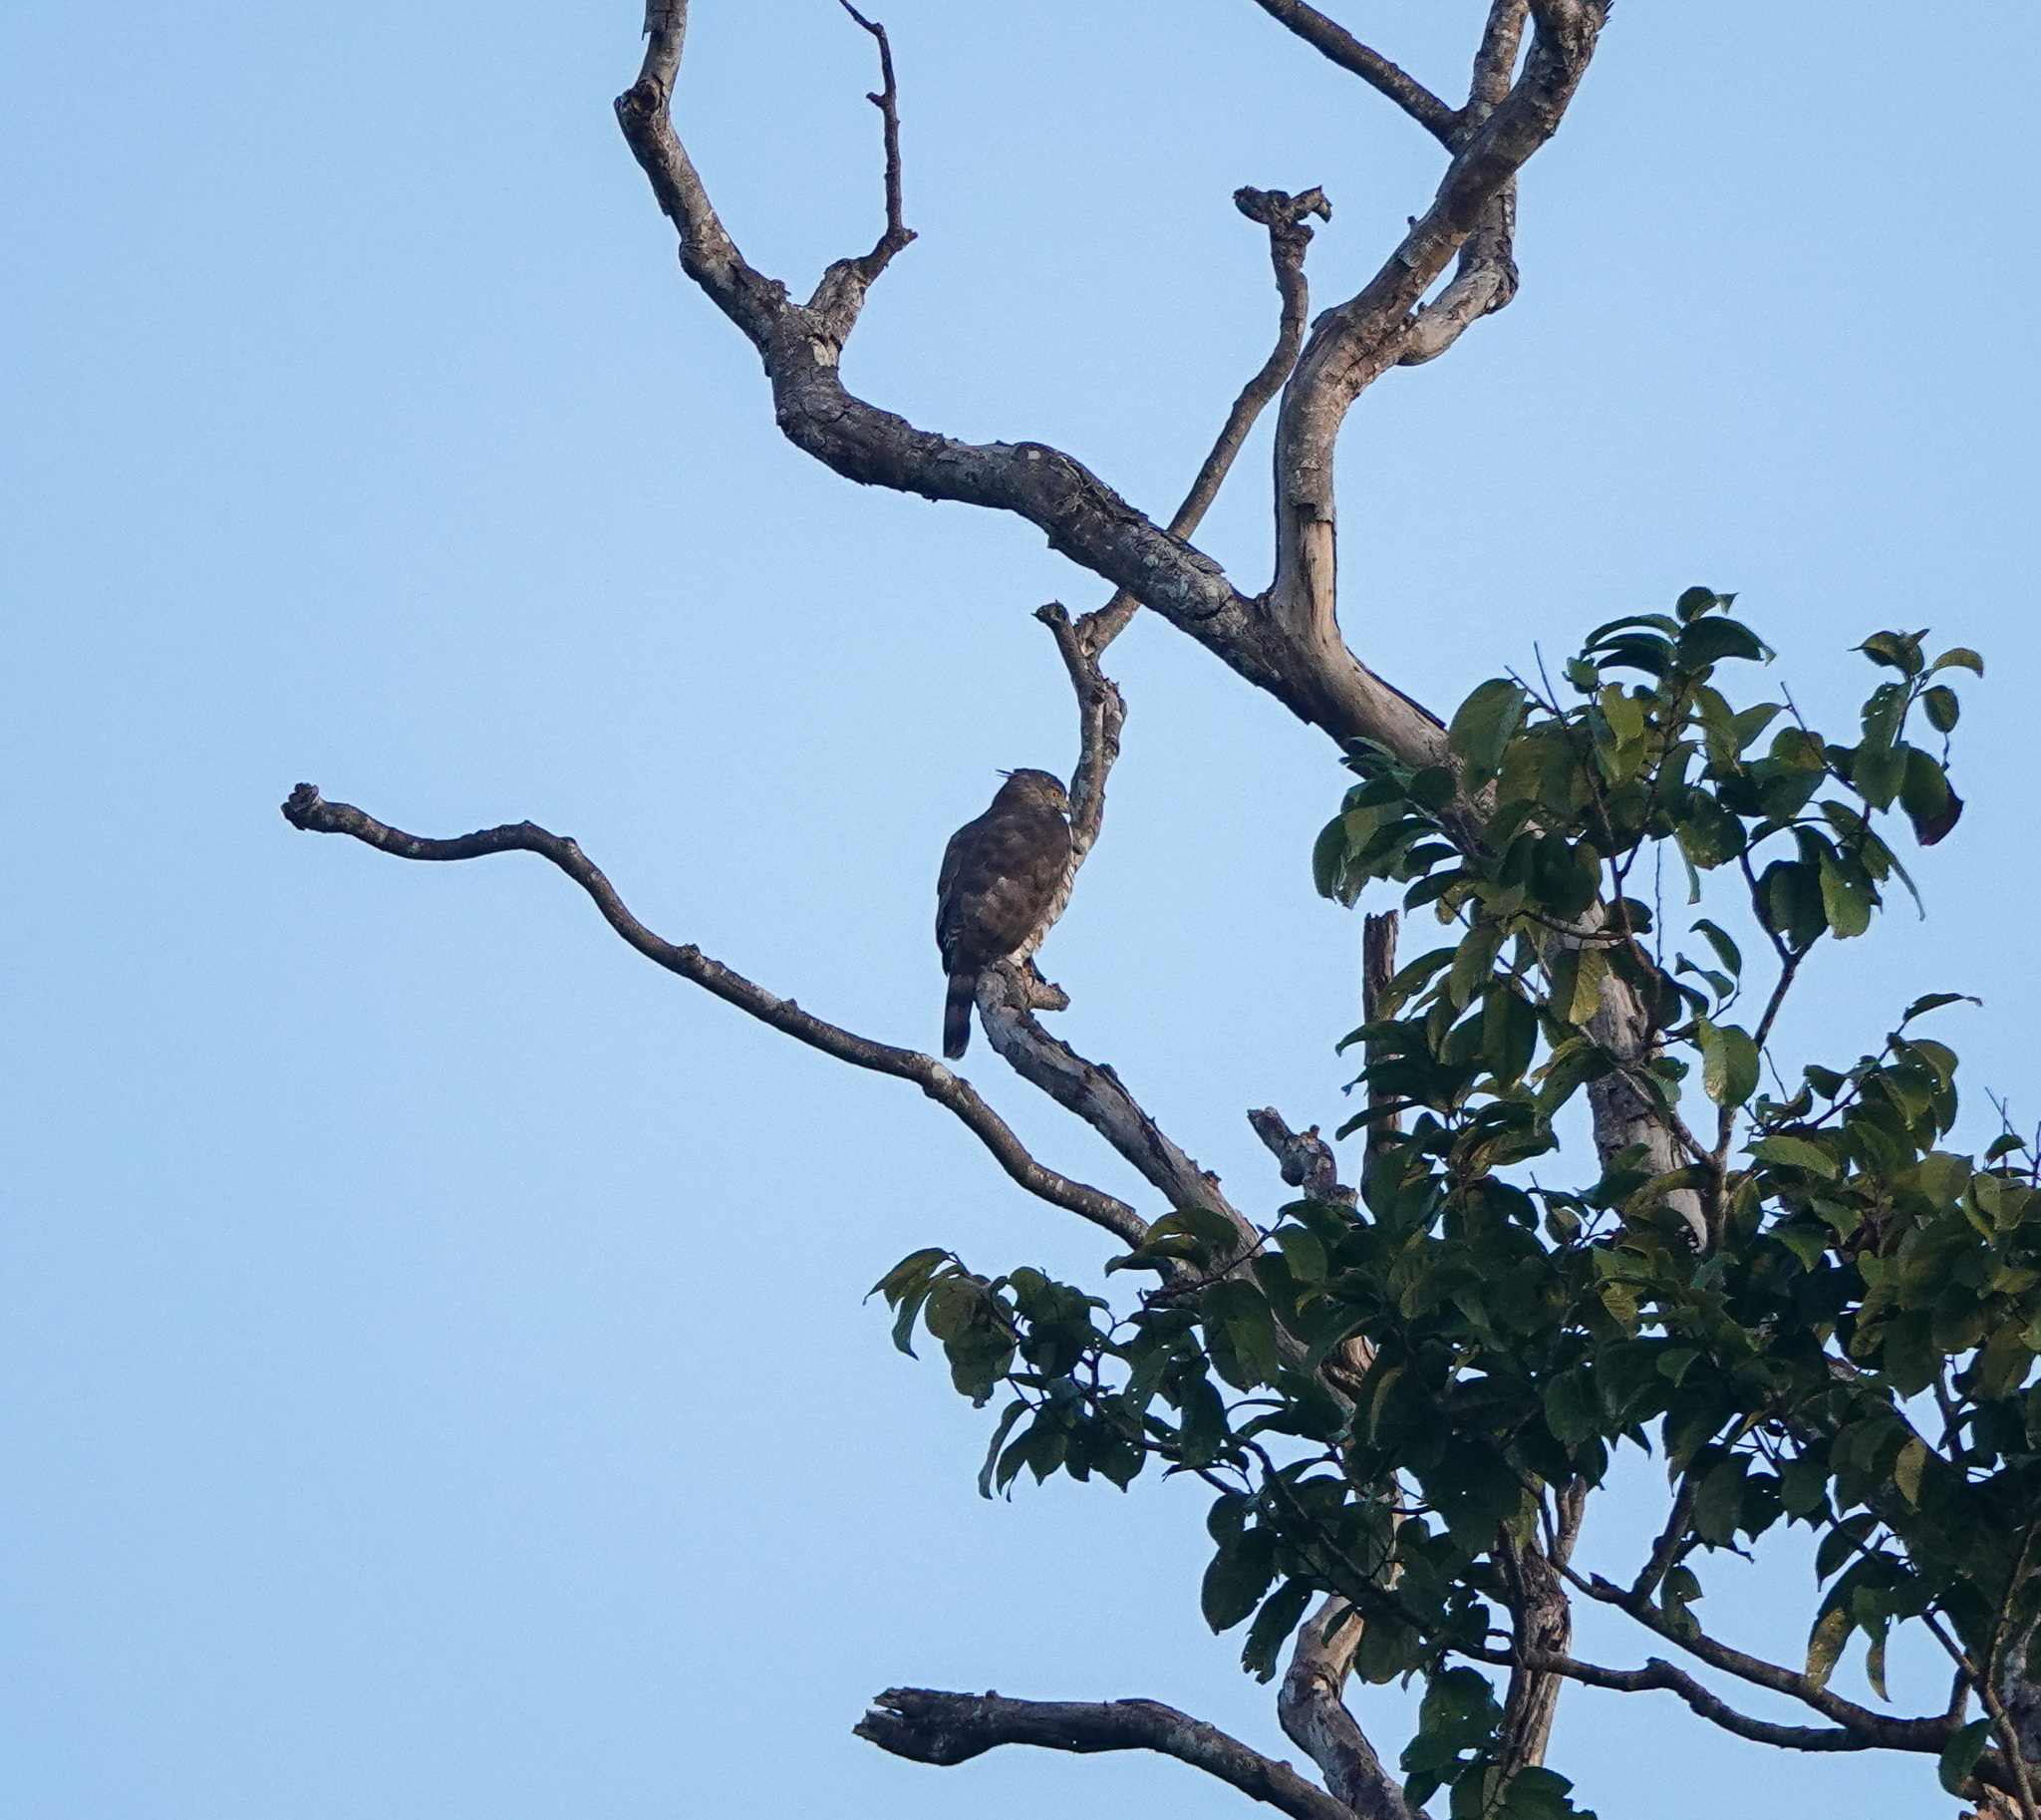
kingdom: Animalia
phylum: Chordata
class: Aves
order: Accipitriformes
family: Accipitridae
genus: Accipiter
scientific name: Accipiter trivirgatus
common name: Crested goshawk
